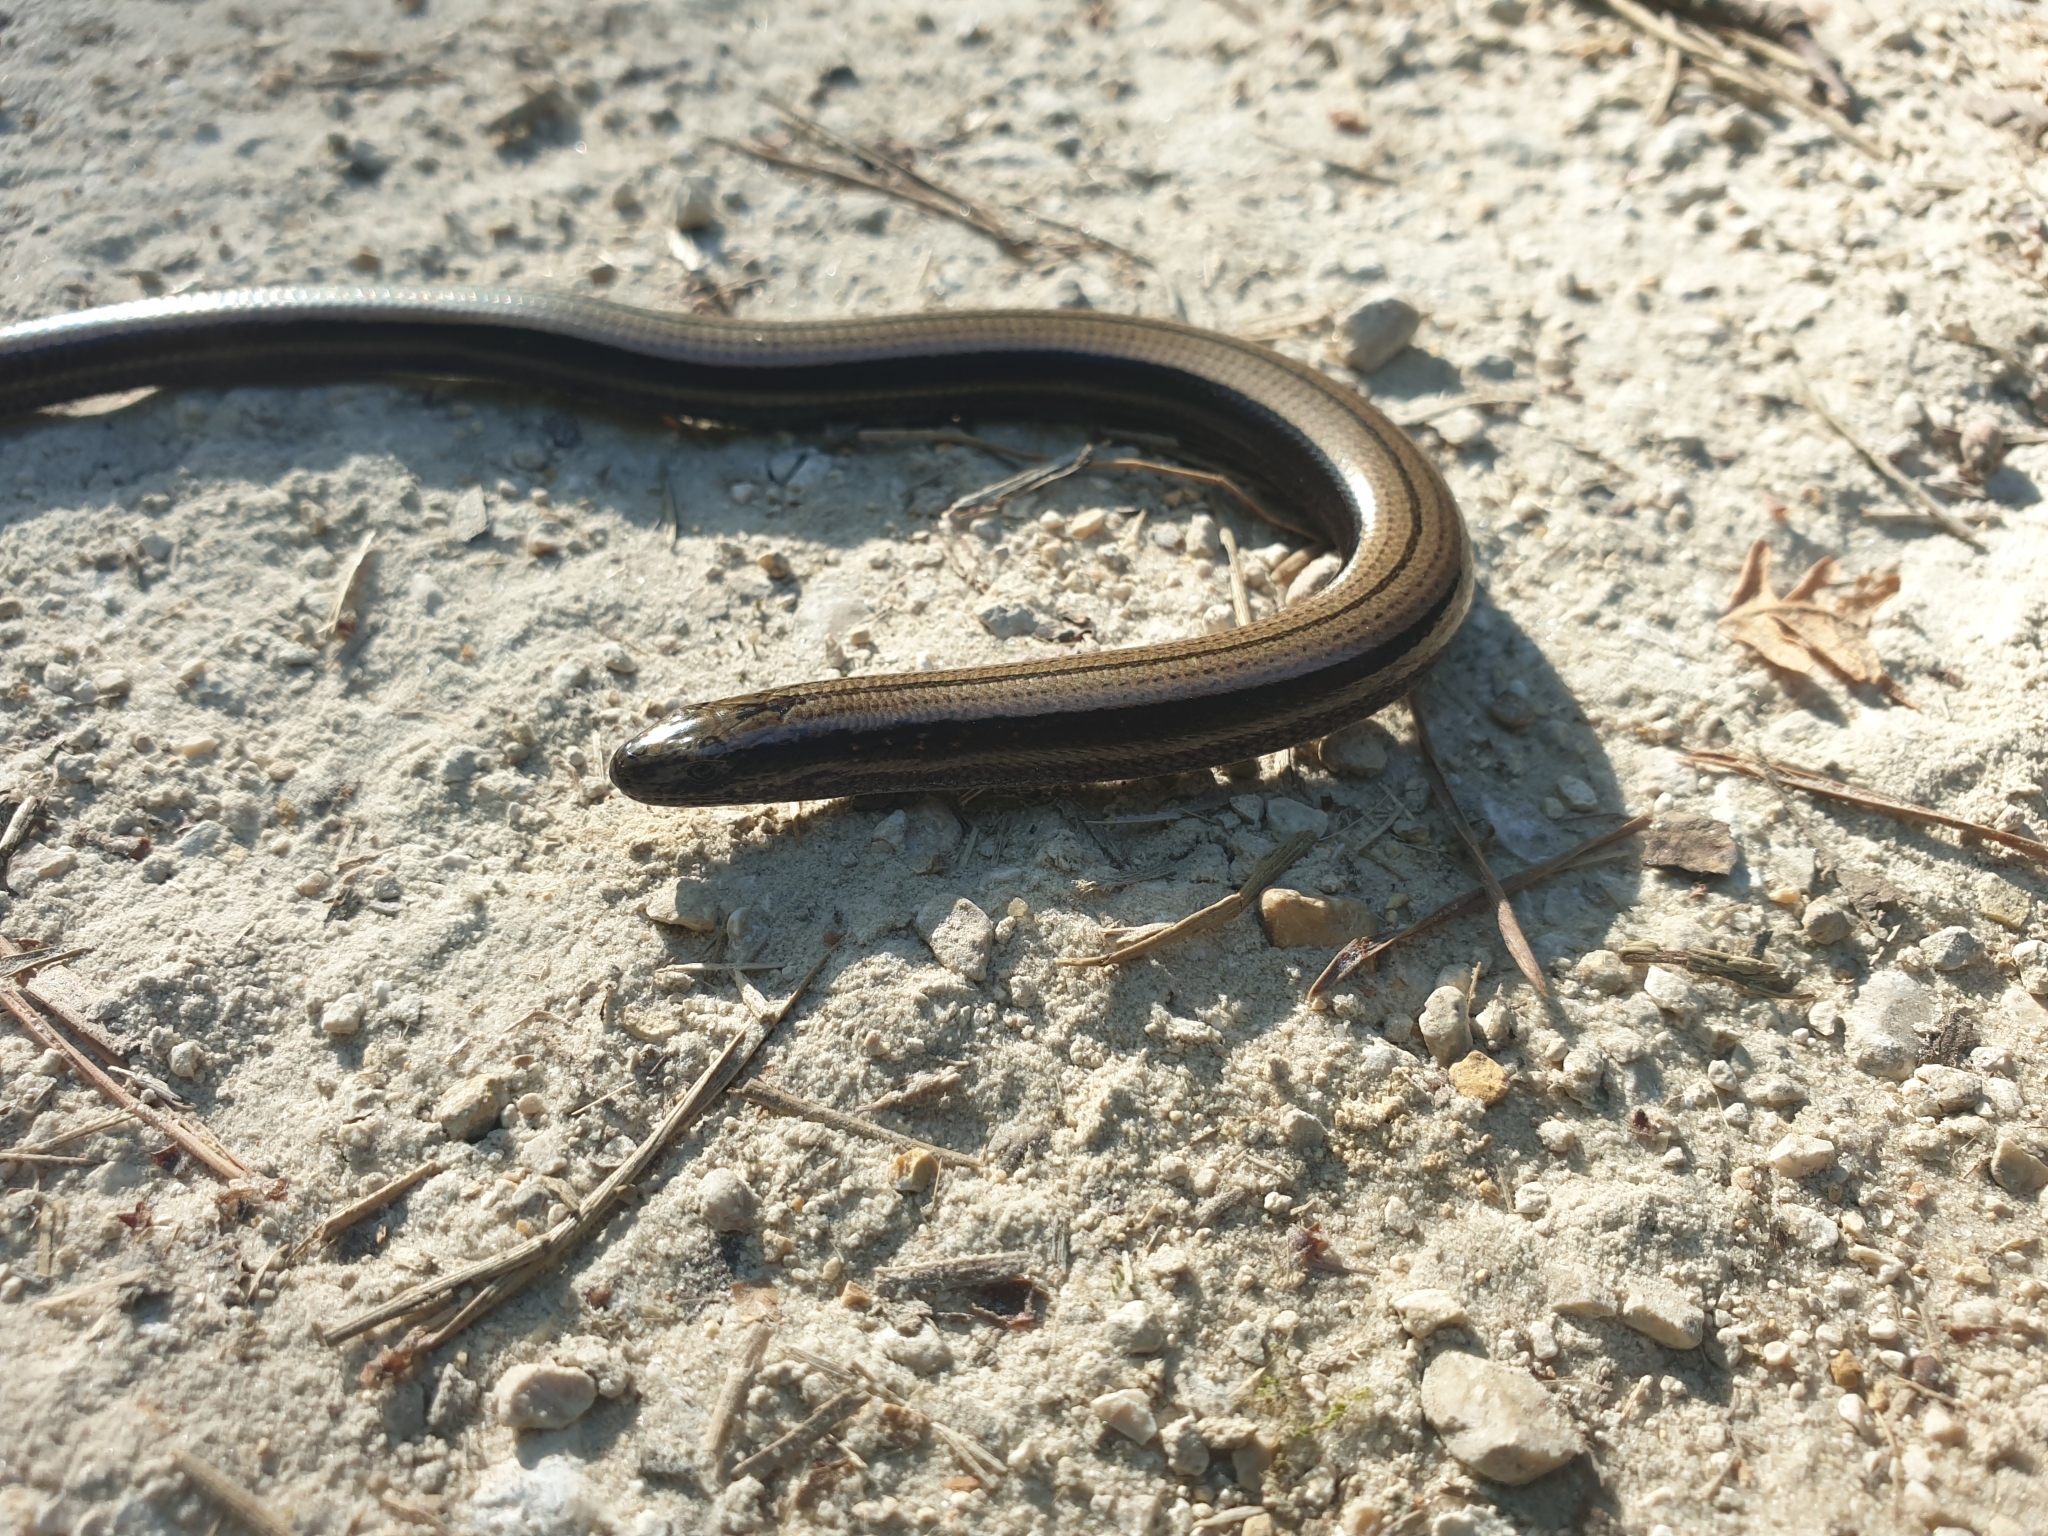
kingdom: Animalia
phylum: Chordata
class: Squamata
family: Anguidae
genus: Anguis
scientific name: Anguis fragilis
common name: Slow worm
